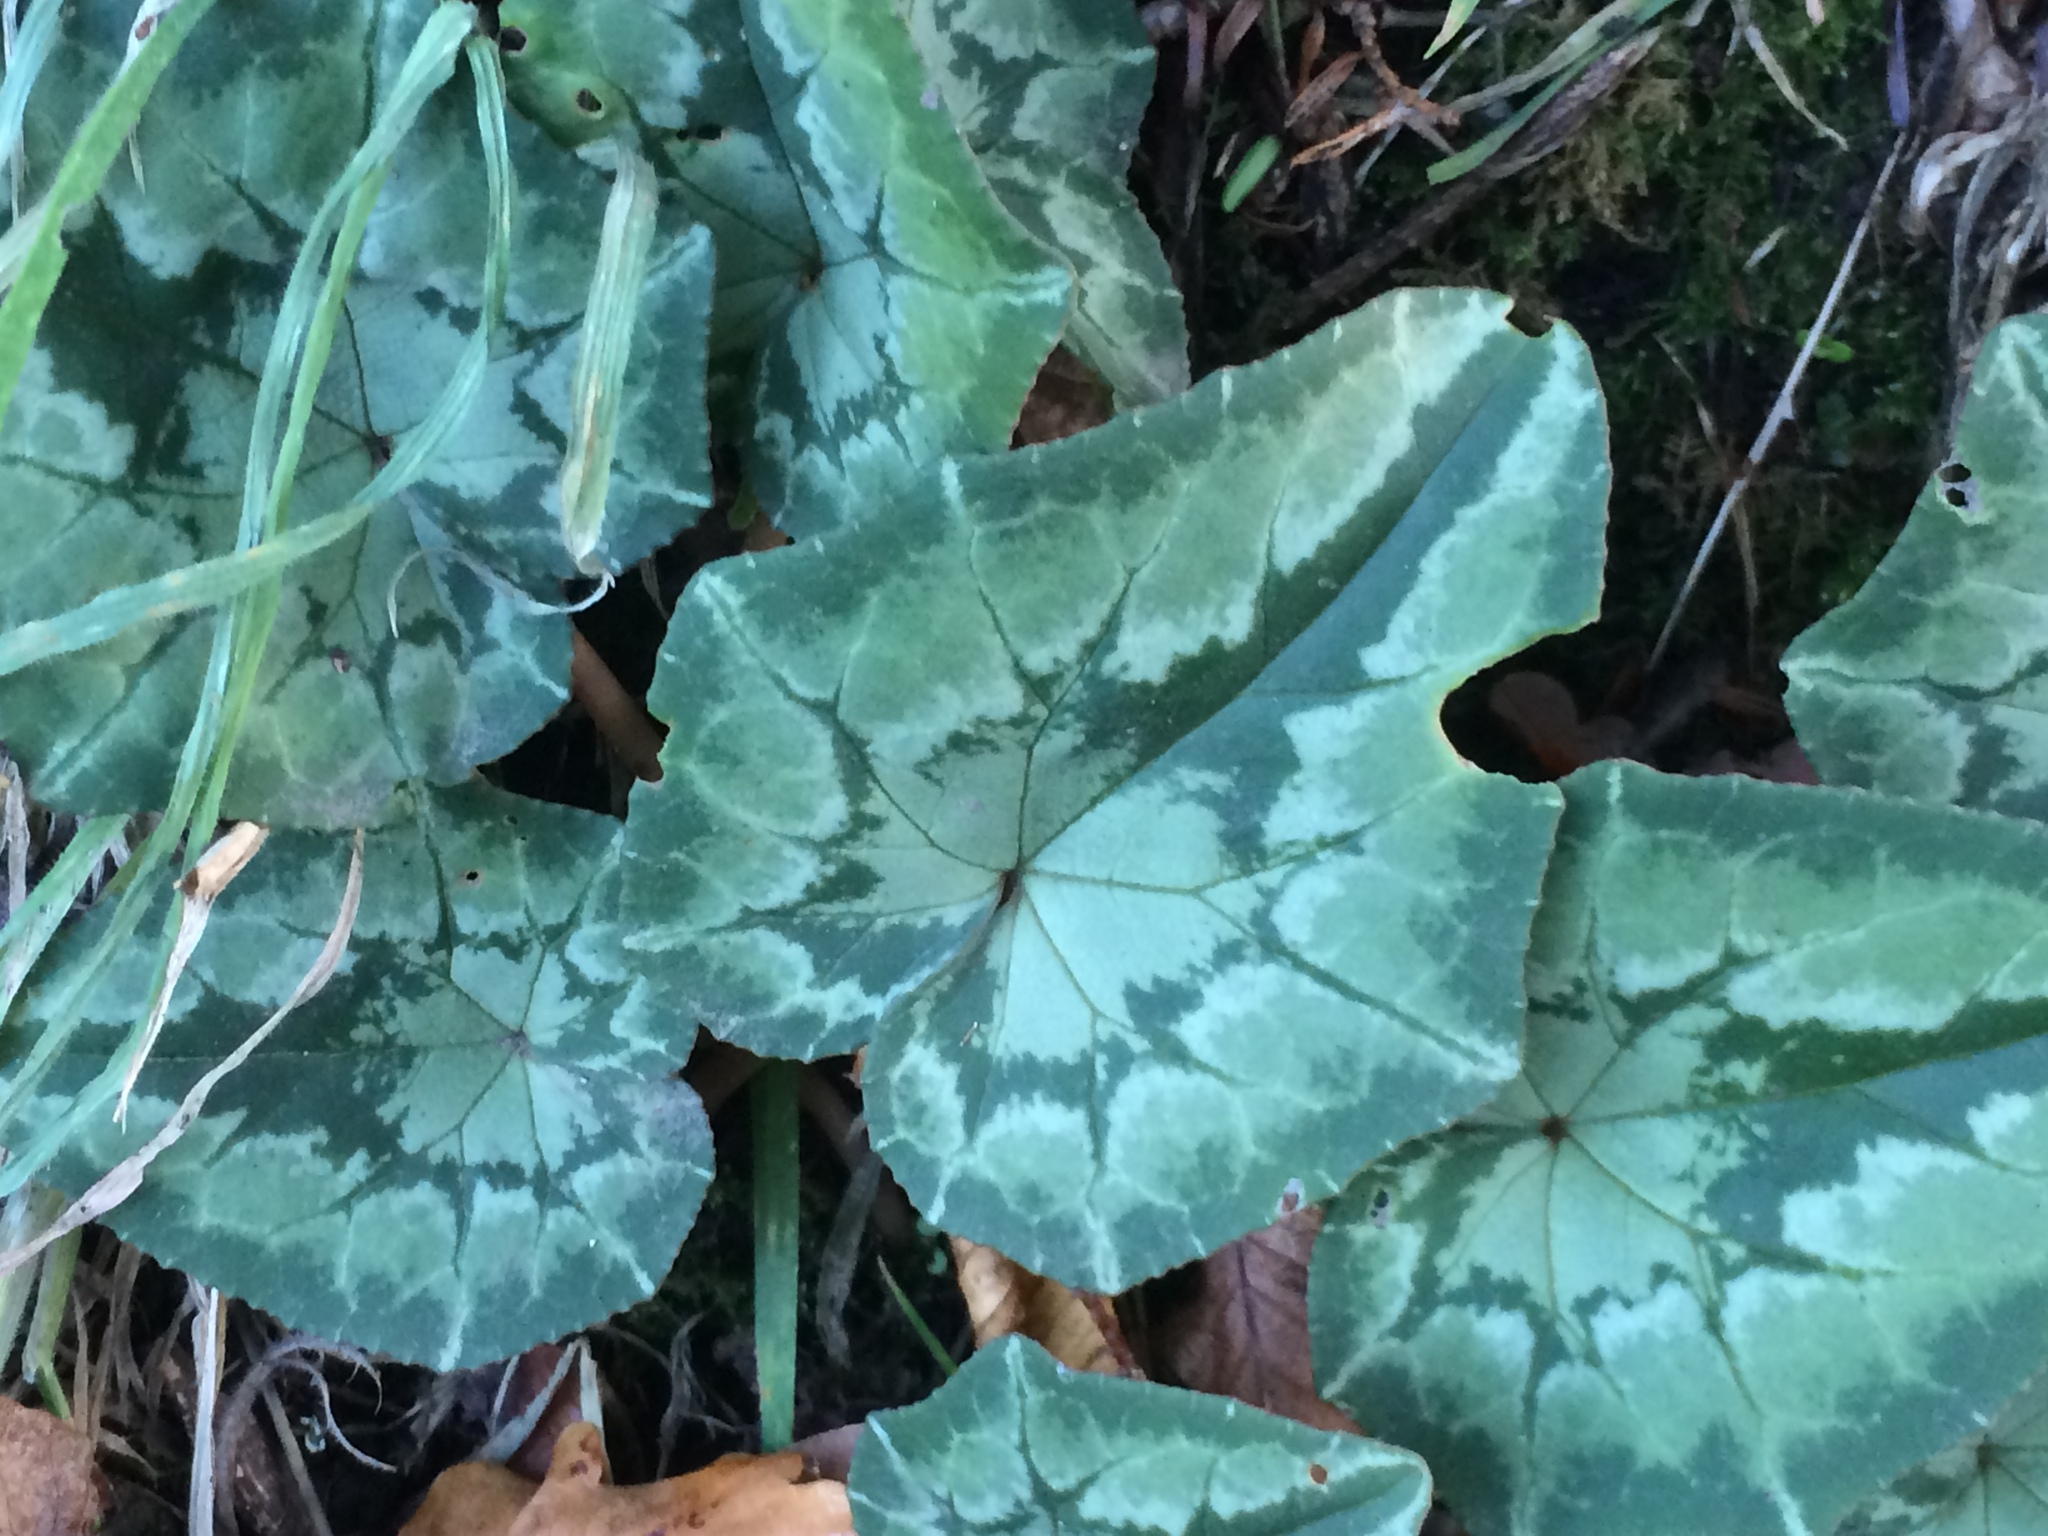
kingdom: Plantae
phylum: Tracheophyta
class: Magnoliopsida
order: Ericales
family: Primulaceae
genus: Cyclamen
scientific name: Cyclamen hederifolium
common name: Sowbread
